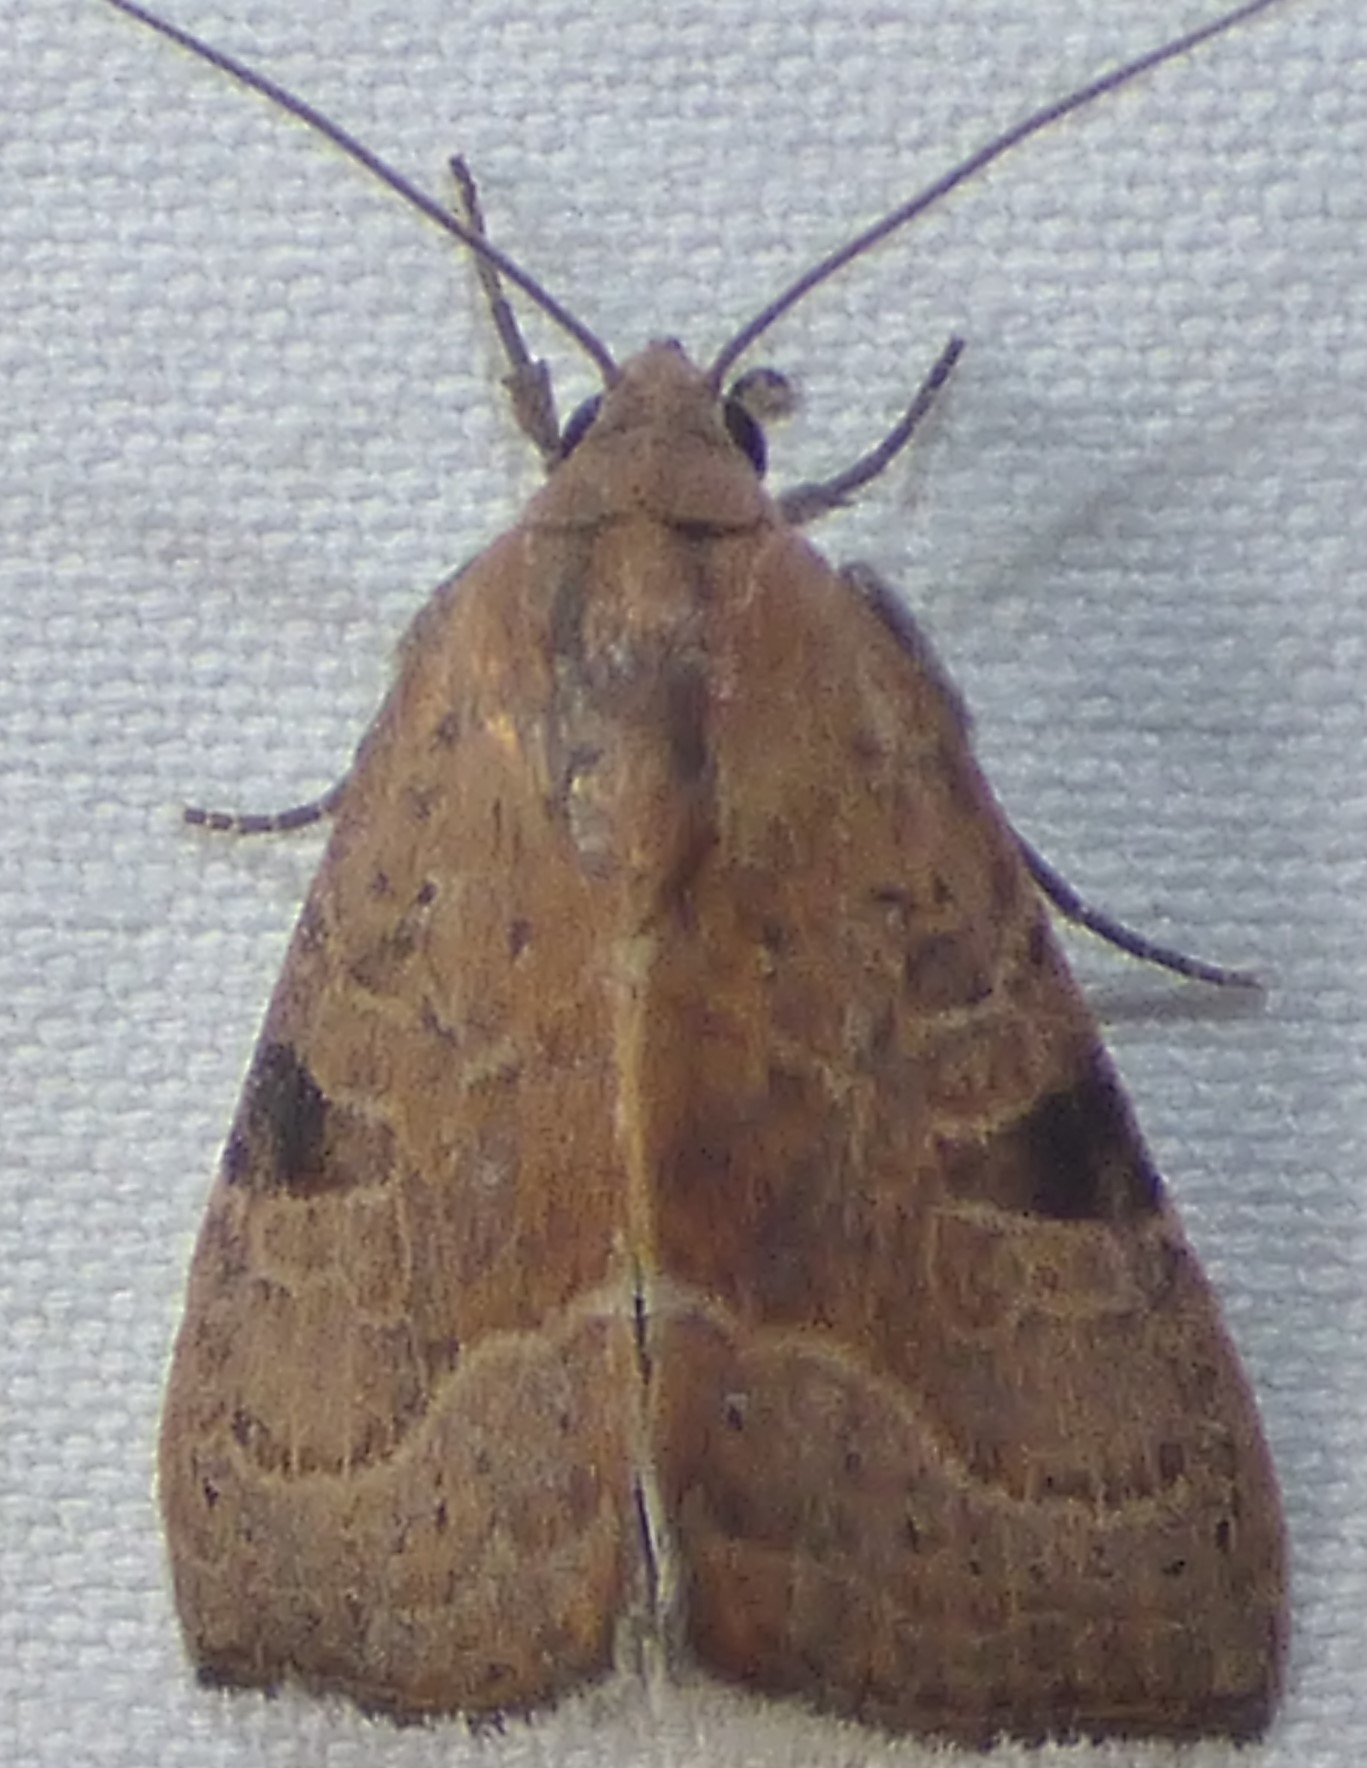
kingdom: Animalia
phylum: Arthropoda
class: Insecta
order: Lepidoptera
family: Noctuidae
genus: Galgula
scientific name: Galgula partita
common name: Wedgeling
